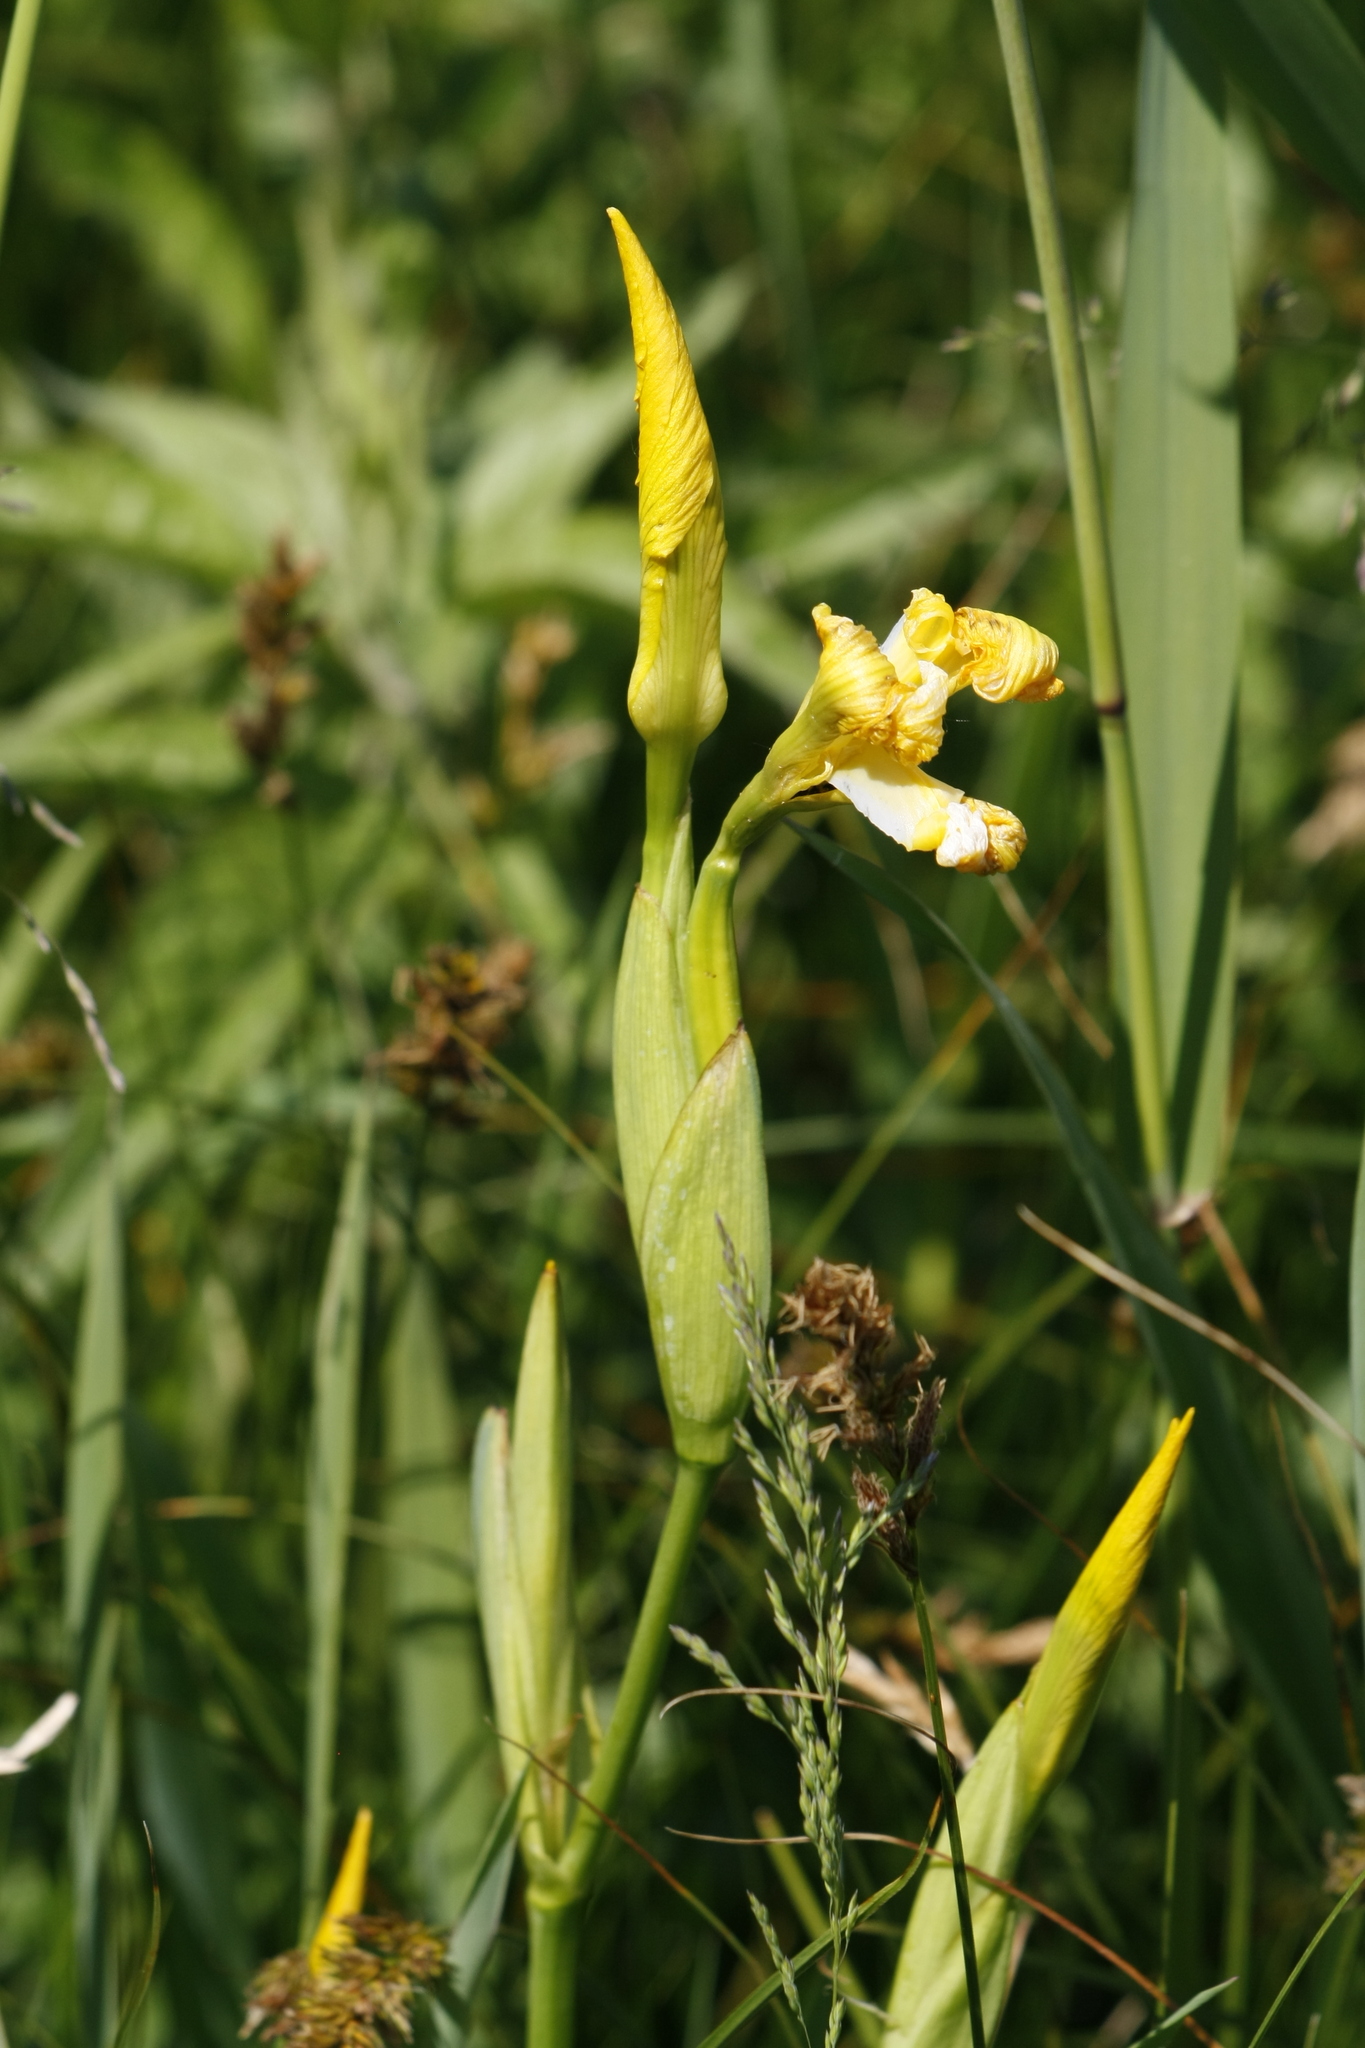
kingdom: Plantae
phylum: Tracheophyta
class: Liliopsida
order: Asparagales
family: Iridaceae
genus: Iris
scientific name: Iris pseudacorus
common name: Yellow flag
